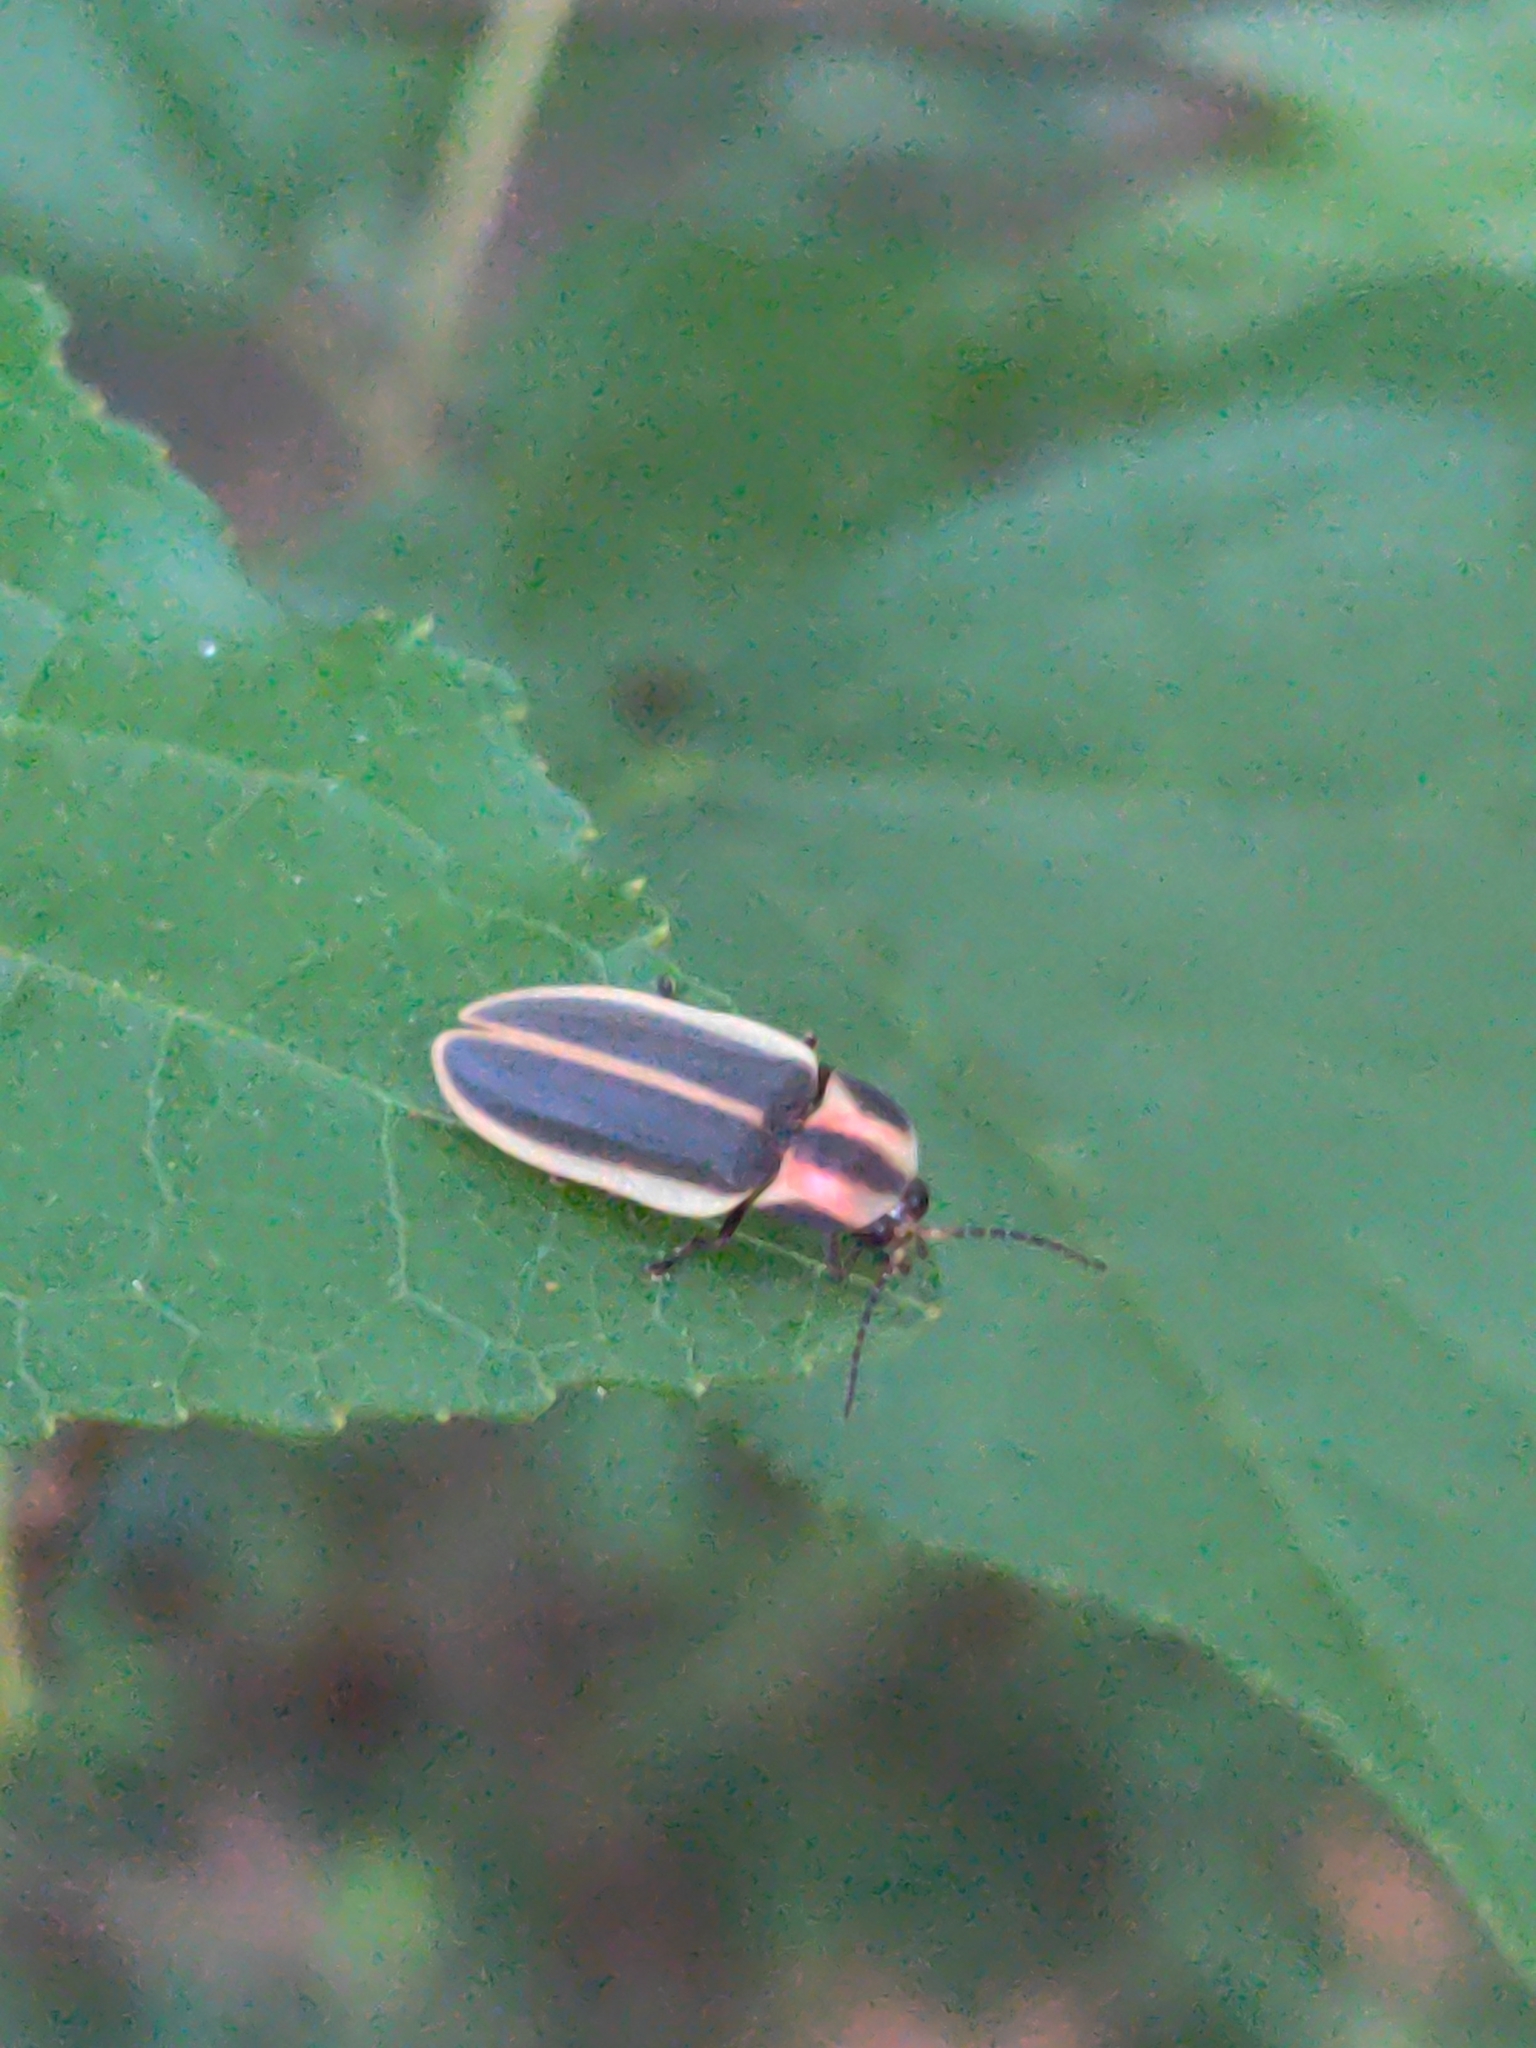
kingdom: Animalia
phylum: Arthropoda
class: Insecta
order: Coleoptera
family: Lampyridae
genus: Pyractomena
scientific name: Pyractomena angulata
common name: Candle firefly
